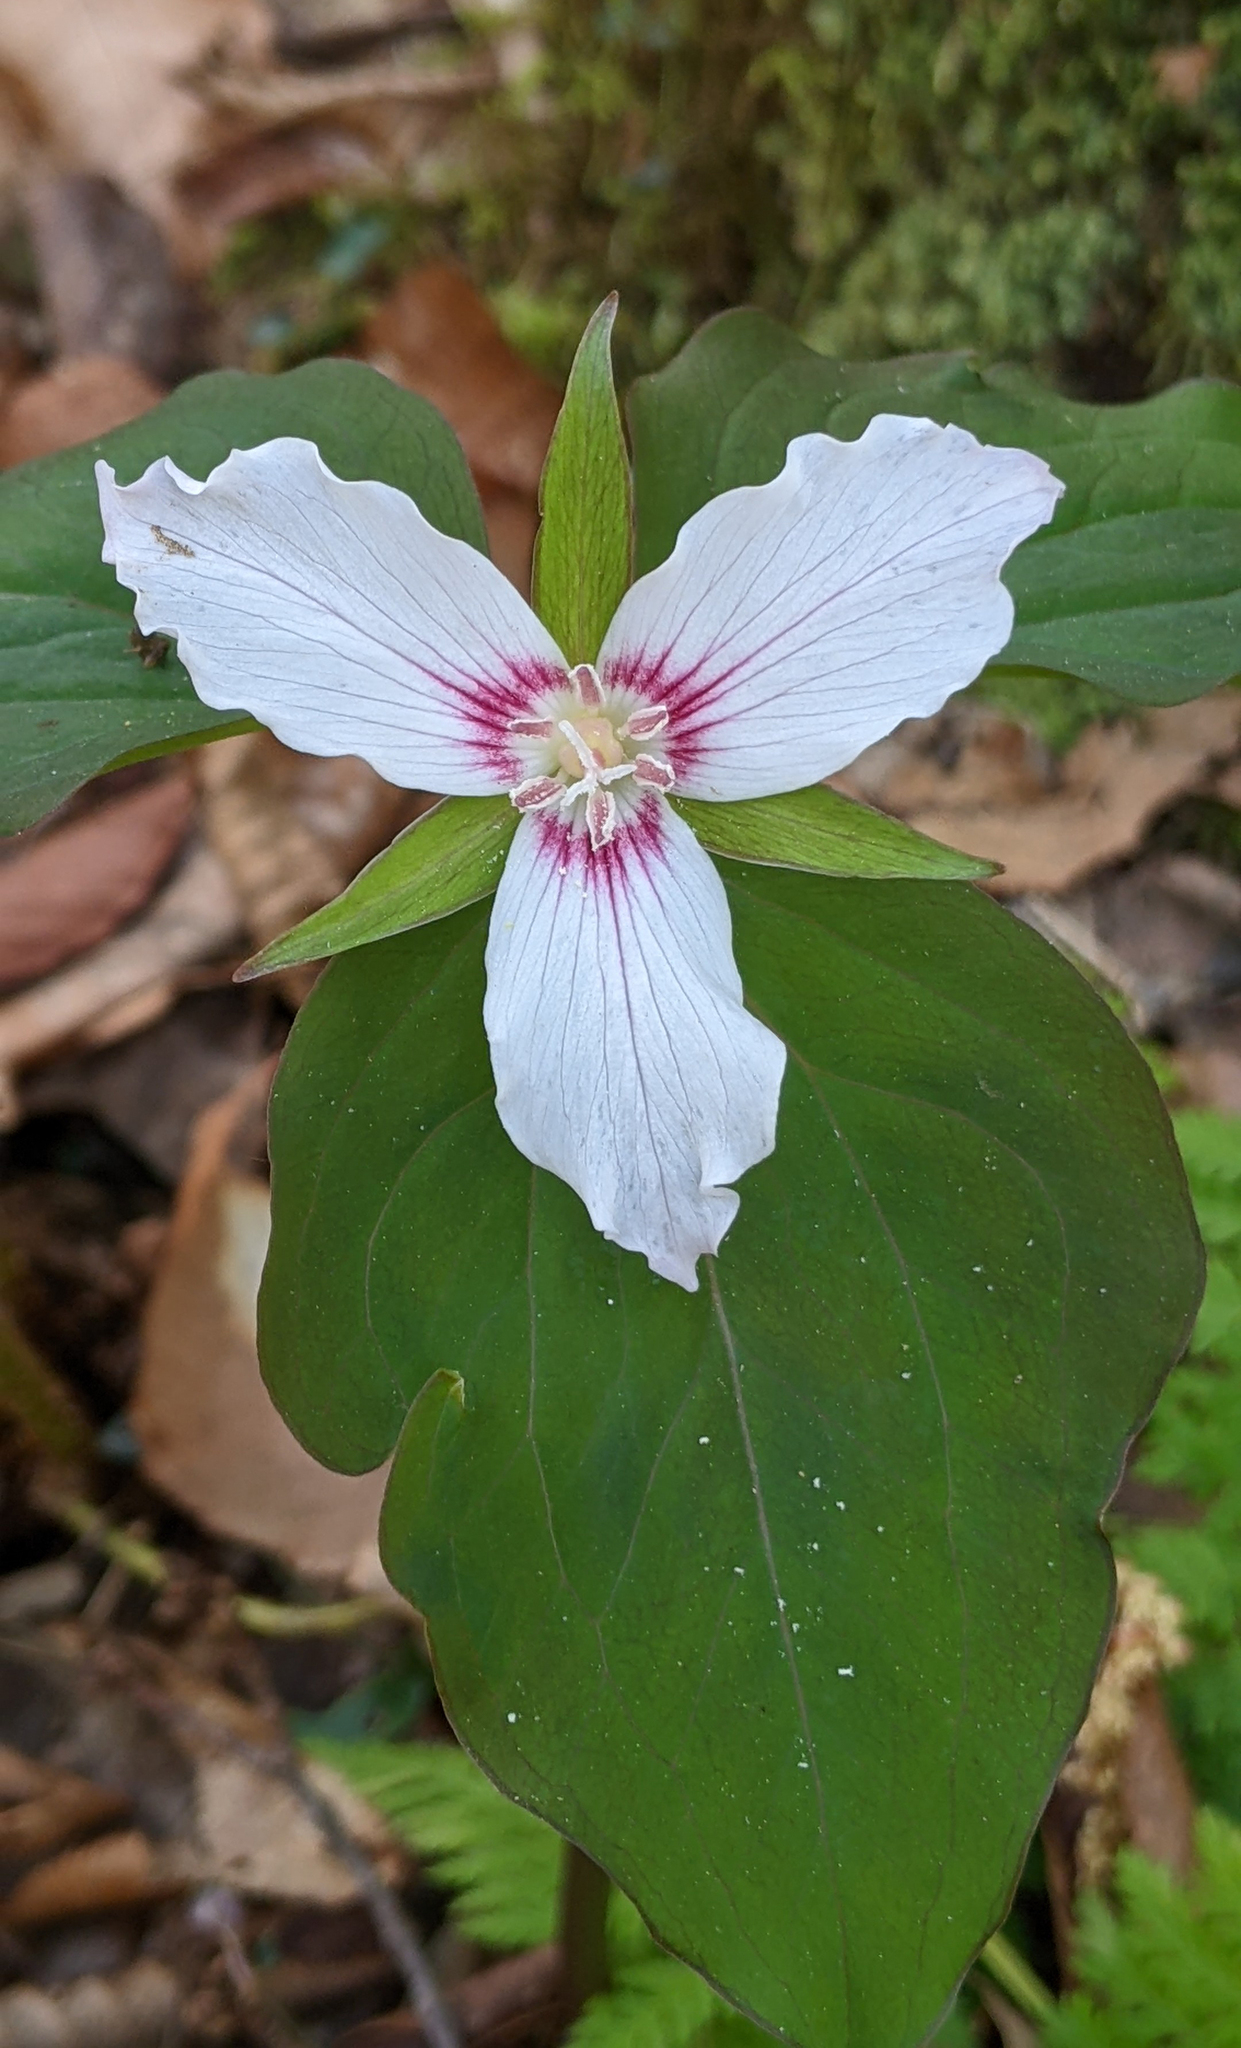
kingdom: Plantae
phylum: Tracheophyta
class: Liliopsida
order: Liliales
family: Melanthiaceae
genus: Trillium
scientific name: Trillium undulatum
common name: Paint trillium
